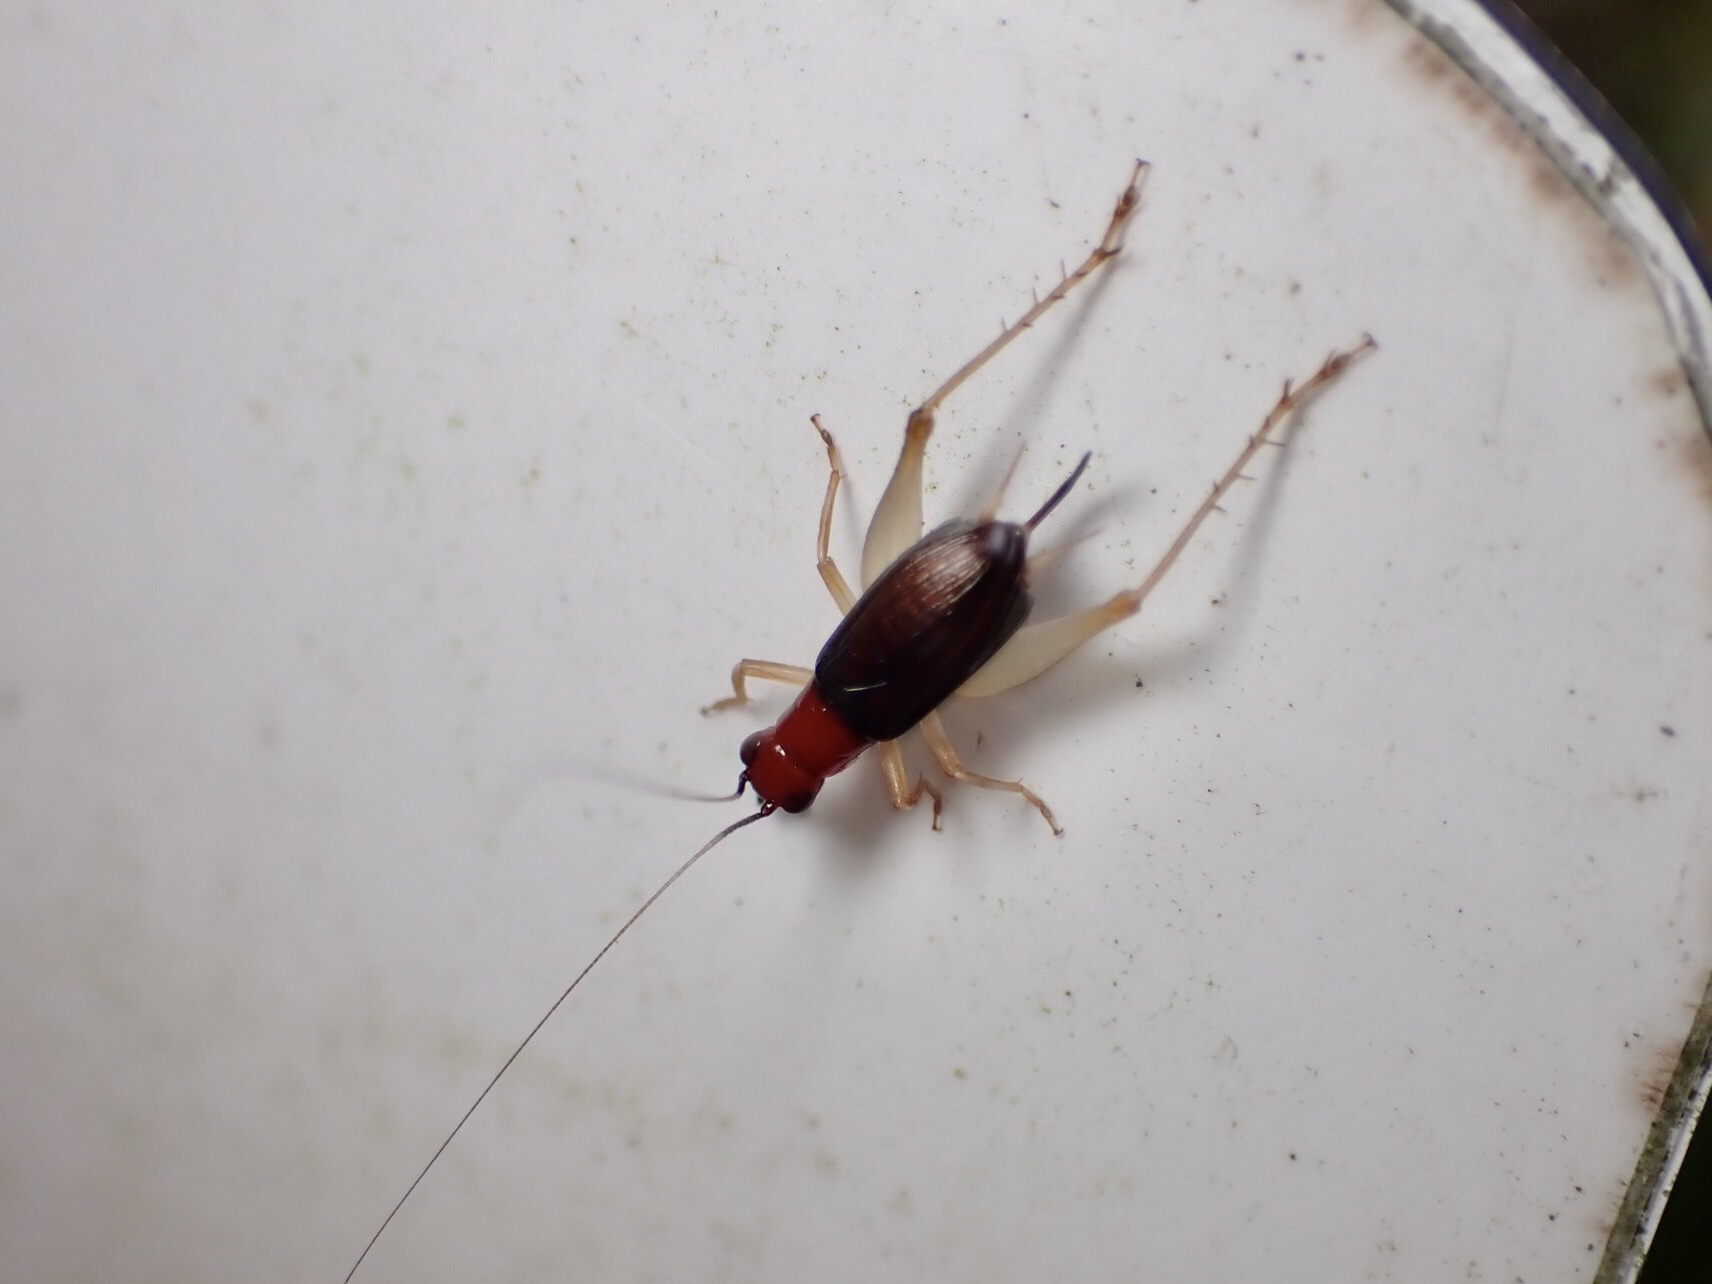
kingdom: Animalia
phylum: Arthropoda
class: Insecta
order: Orthoptera
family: Trigonidiidae
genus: Phyllopalpus
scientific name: Phyllopalpus pulchellus
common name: Handsome trig
